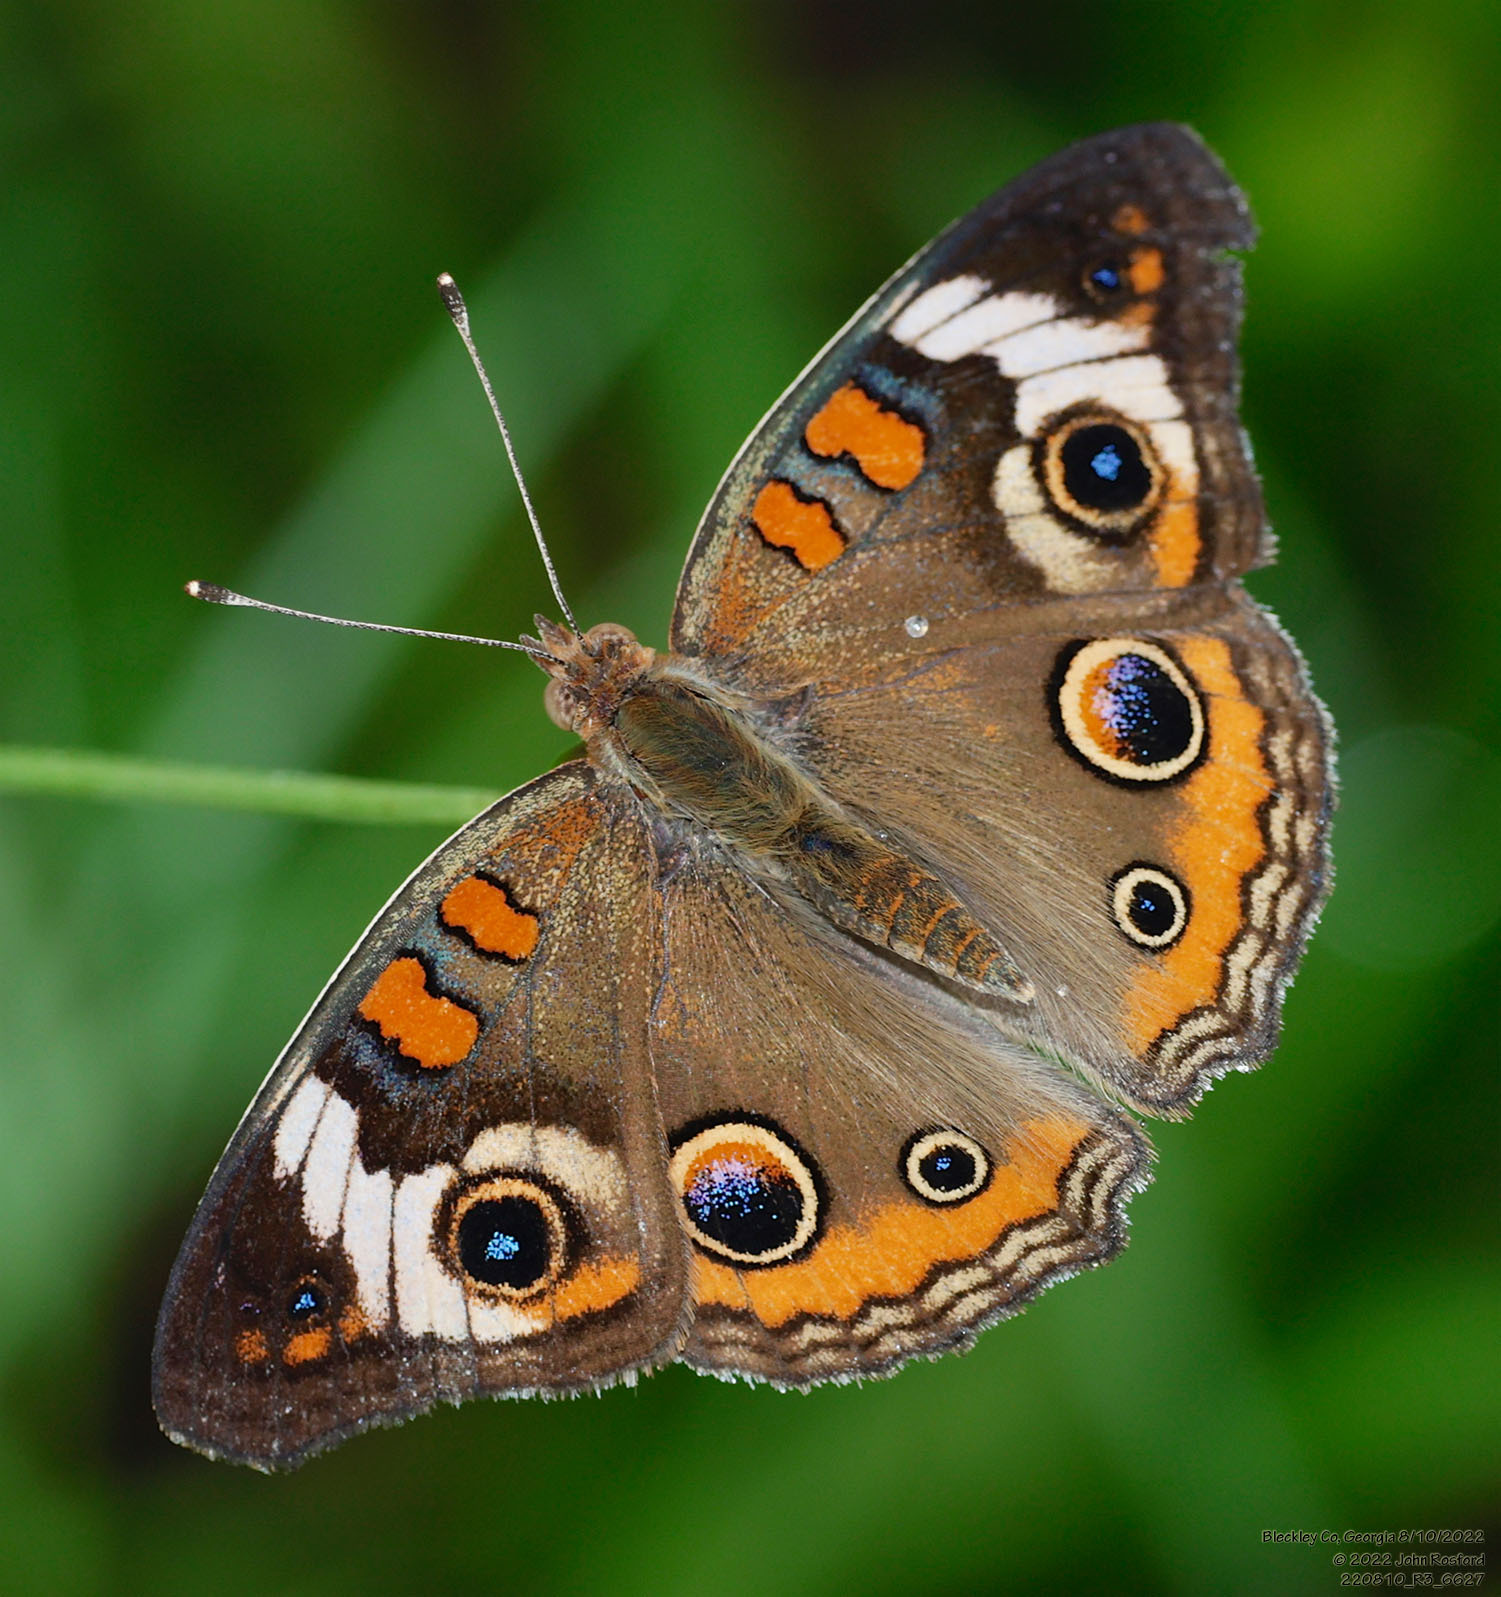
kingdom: Animalia
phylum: Arthropoda
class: Insecta
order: Lepidoptera
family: Nymphalidae
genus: Junonia
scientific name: Junonia coenia
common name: Common buckeye
